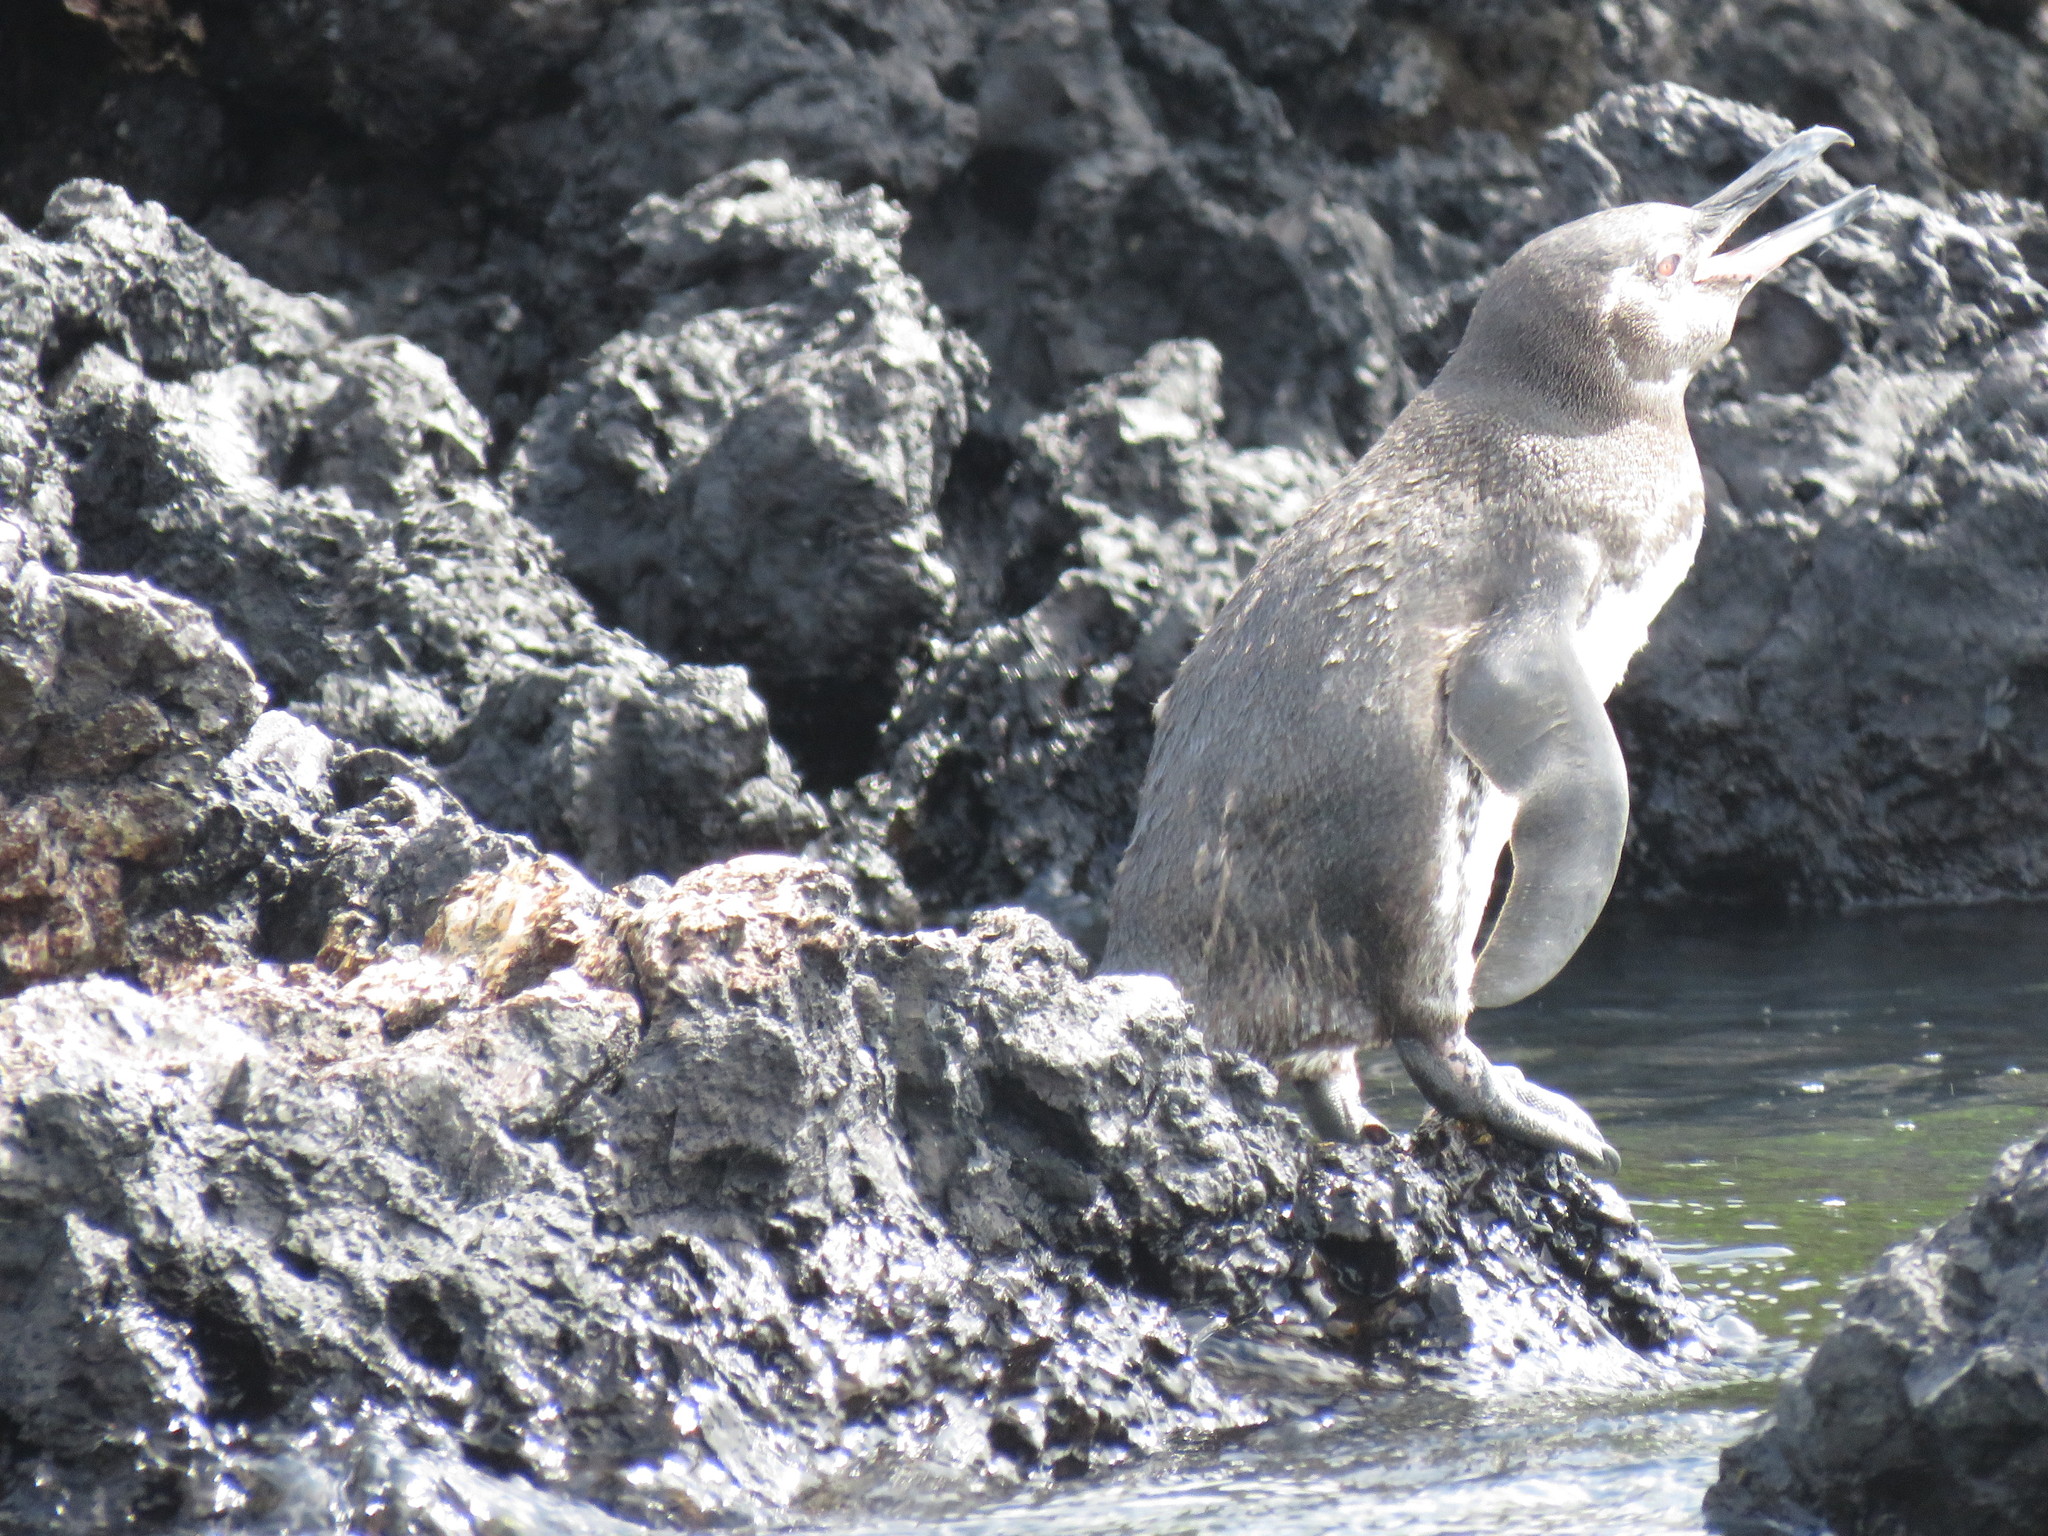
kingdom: Animalia
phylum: Chordata
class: Aves
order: Sphenisciformes
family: Spheniscidae
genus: Spheniscus
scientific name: Spheniscus mendiculus
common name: Galapagos penguin
